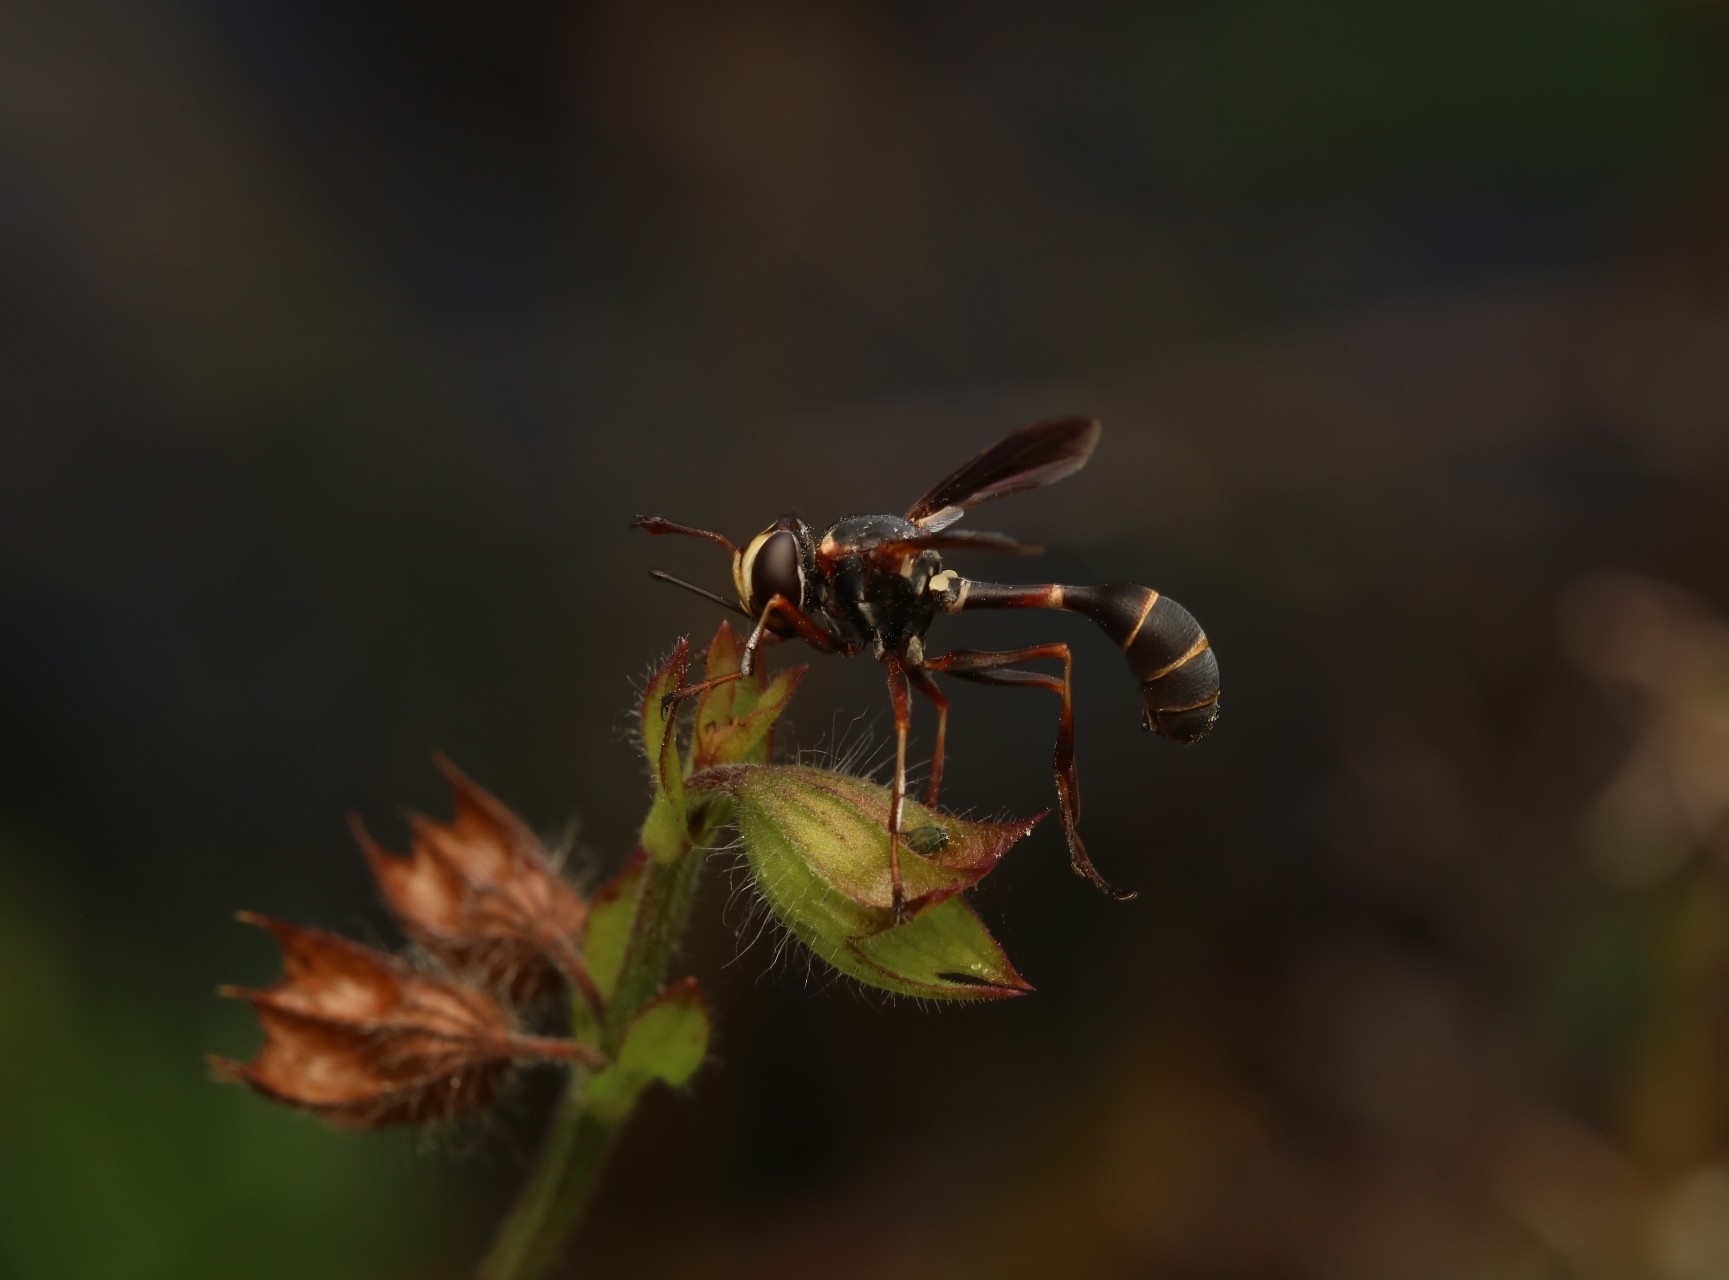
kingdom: Animalia
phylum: Arthropoda
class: Insecta
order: Diptera
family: Conopidae
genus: Physocephala
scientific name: Physocephala sagittaria
